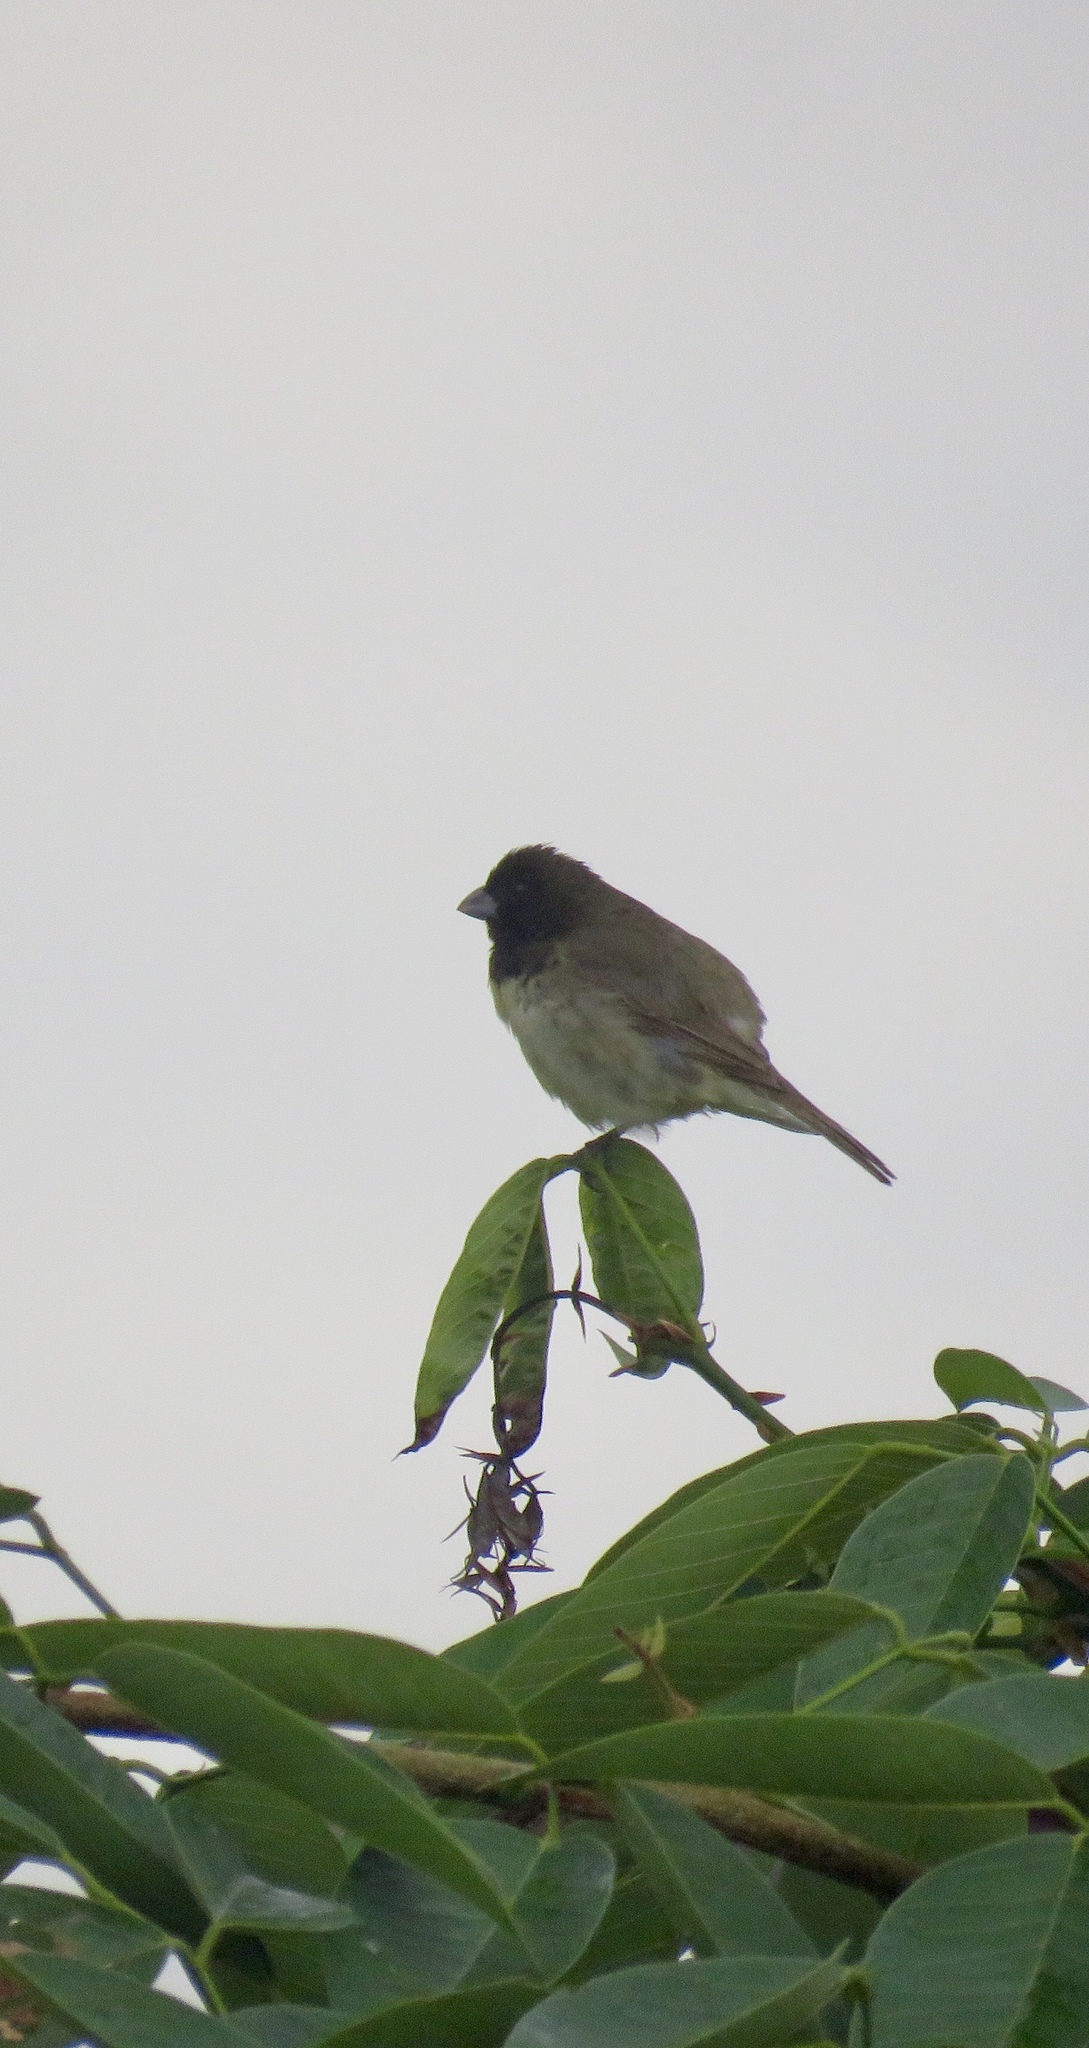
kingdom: Animalia
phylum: Chordata
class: Aves
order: Passeriformes
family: Thraupidae
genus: Sporophila
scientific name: Sporophila nigricollis
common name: Yellow-bellied seedeater
